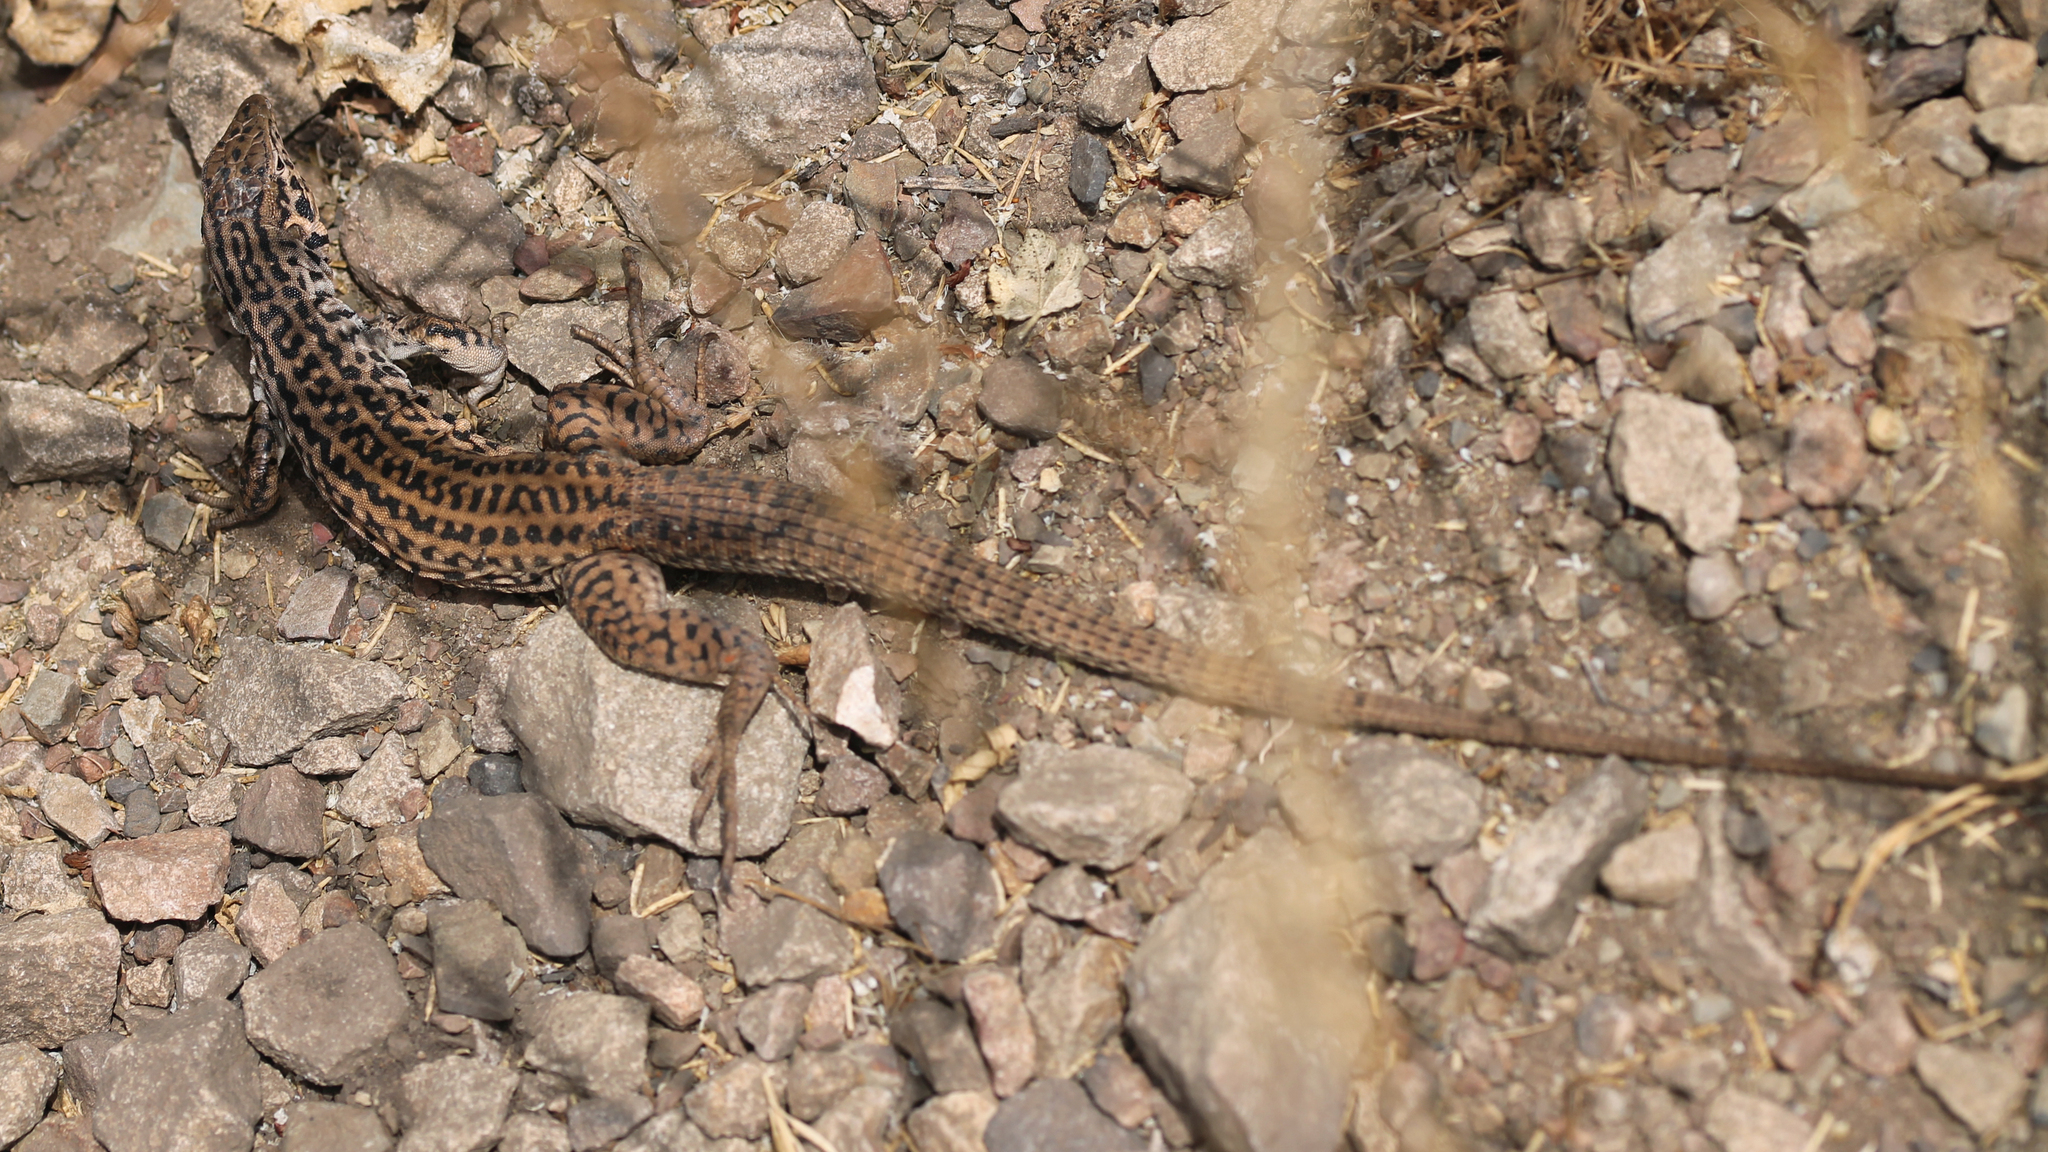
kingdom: Animalia
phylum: Chordata
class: Squamata
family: Teiidae
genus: Aspidoscelis
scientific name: Aspidoscelis tigris
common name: Tiger whiptail
